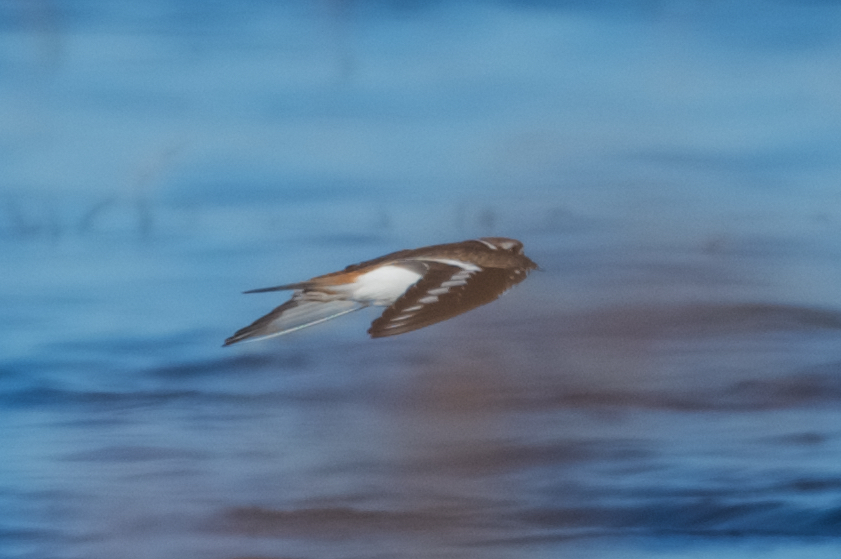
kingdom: Animalia
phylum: Chordata
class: Aves
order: Charadriiformes
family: Charadriidae
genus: Charadrius
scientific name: Charadrius vociferus
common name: Killdeer
